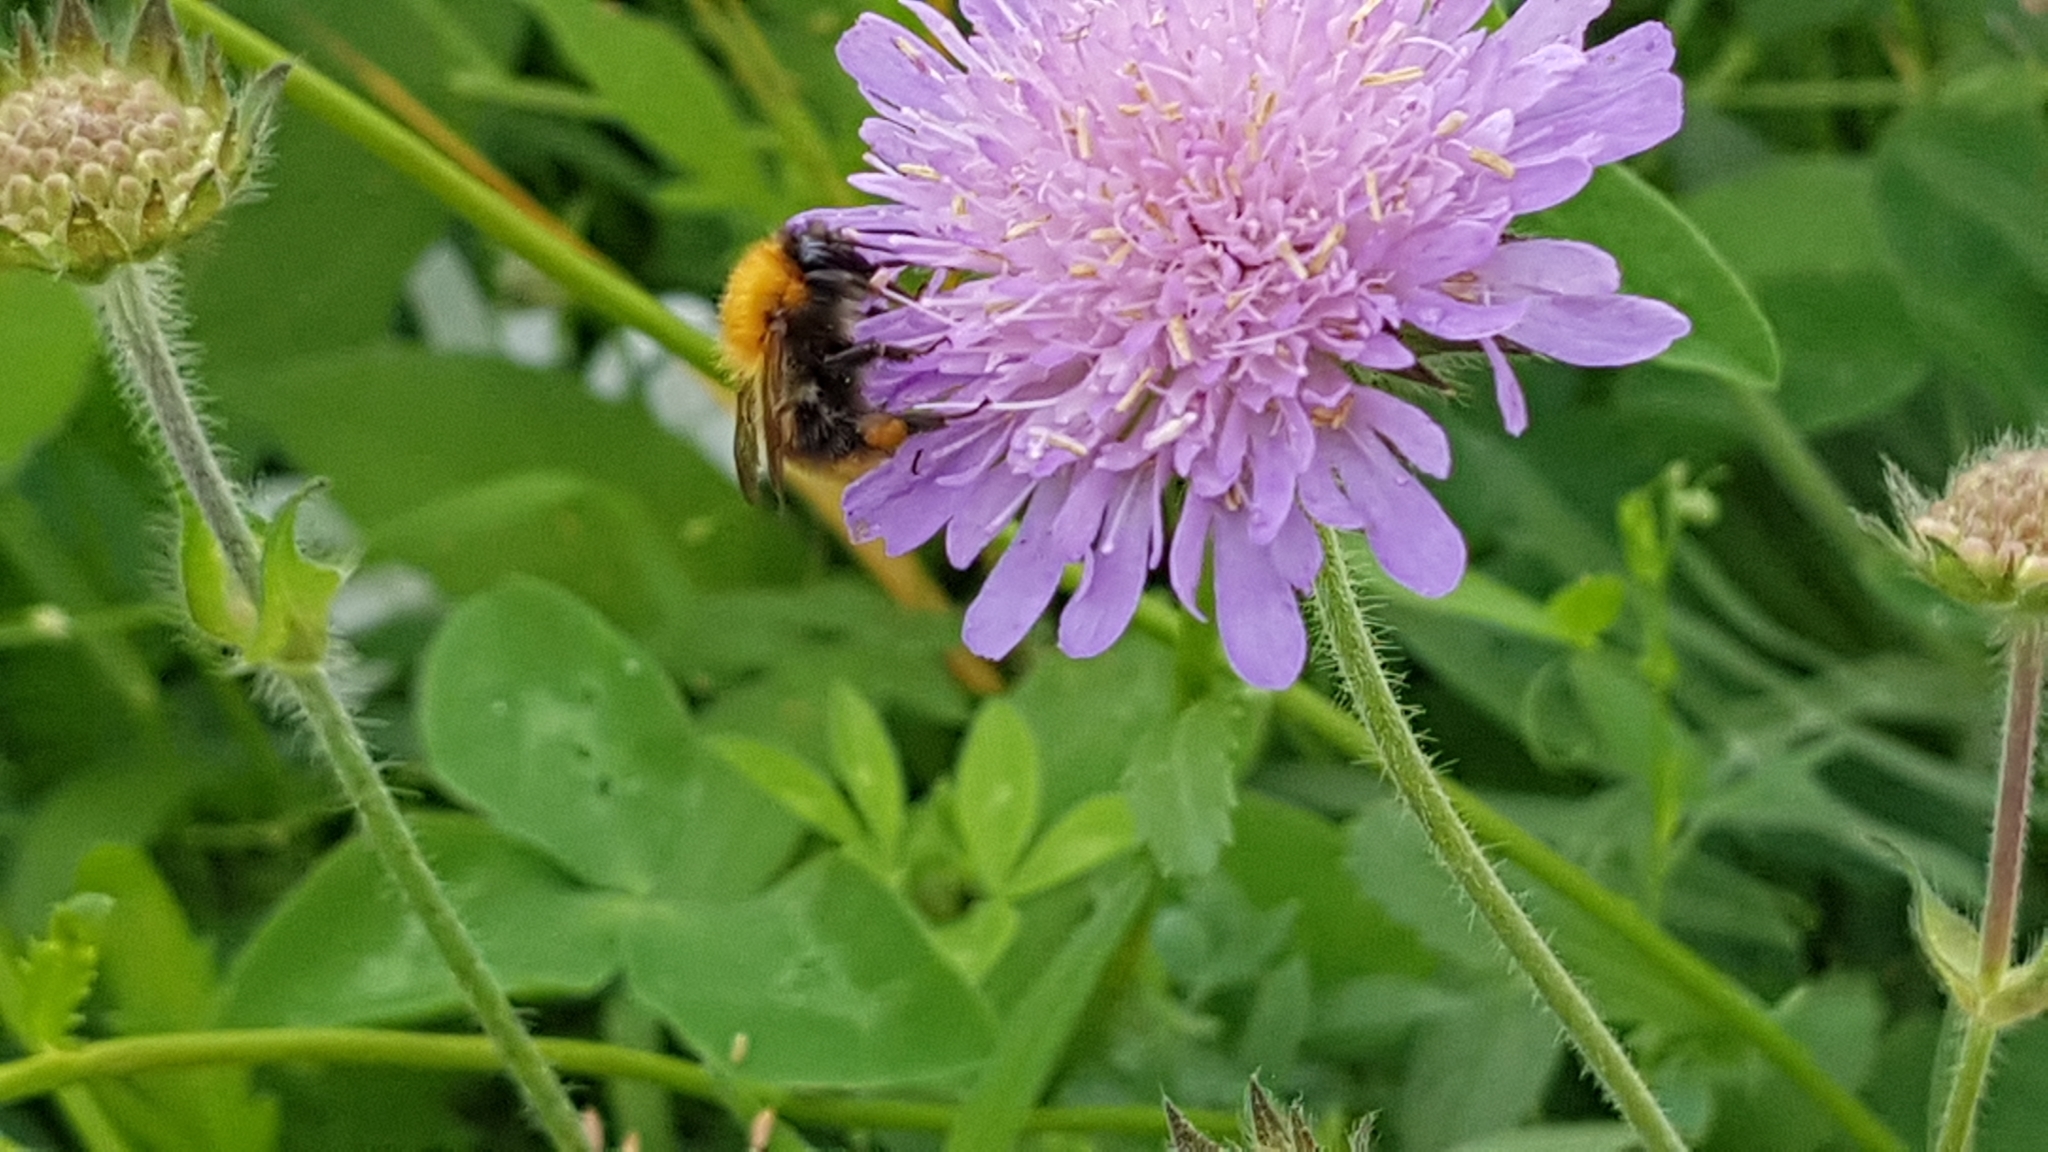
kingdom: Animalia
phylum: Arthropoda
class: Insecta
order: Hymenoptera
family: Apidae
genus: Bombus
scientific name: Bombus pascuorum
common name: Common carder bee
